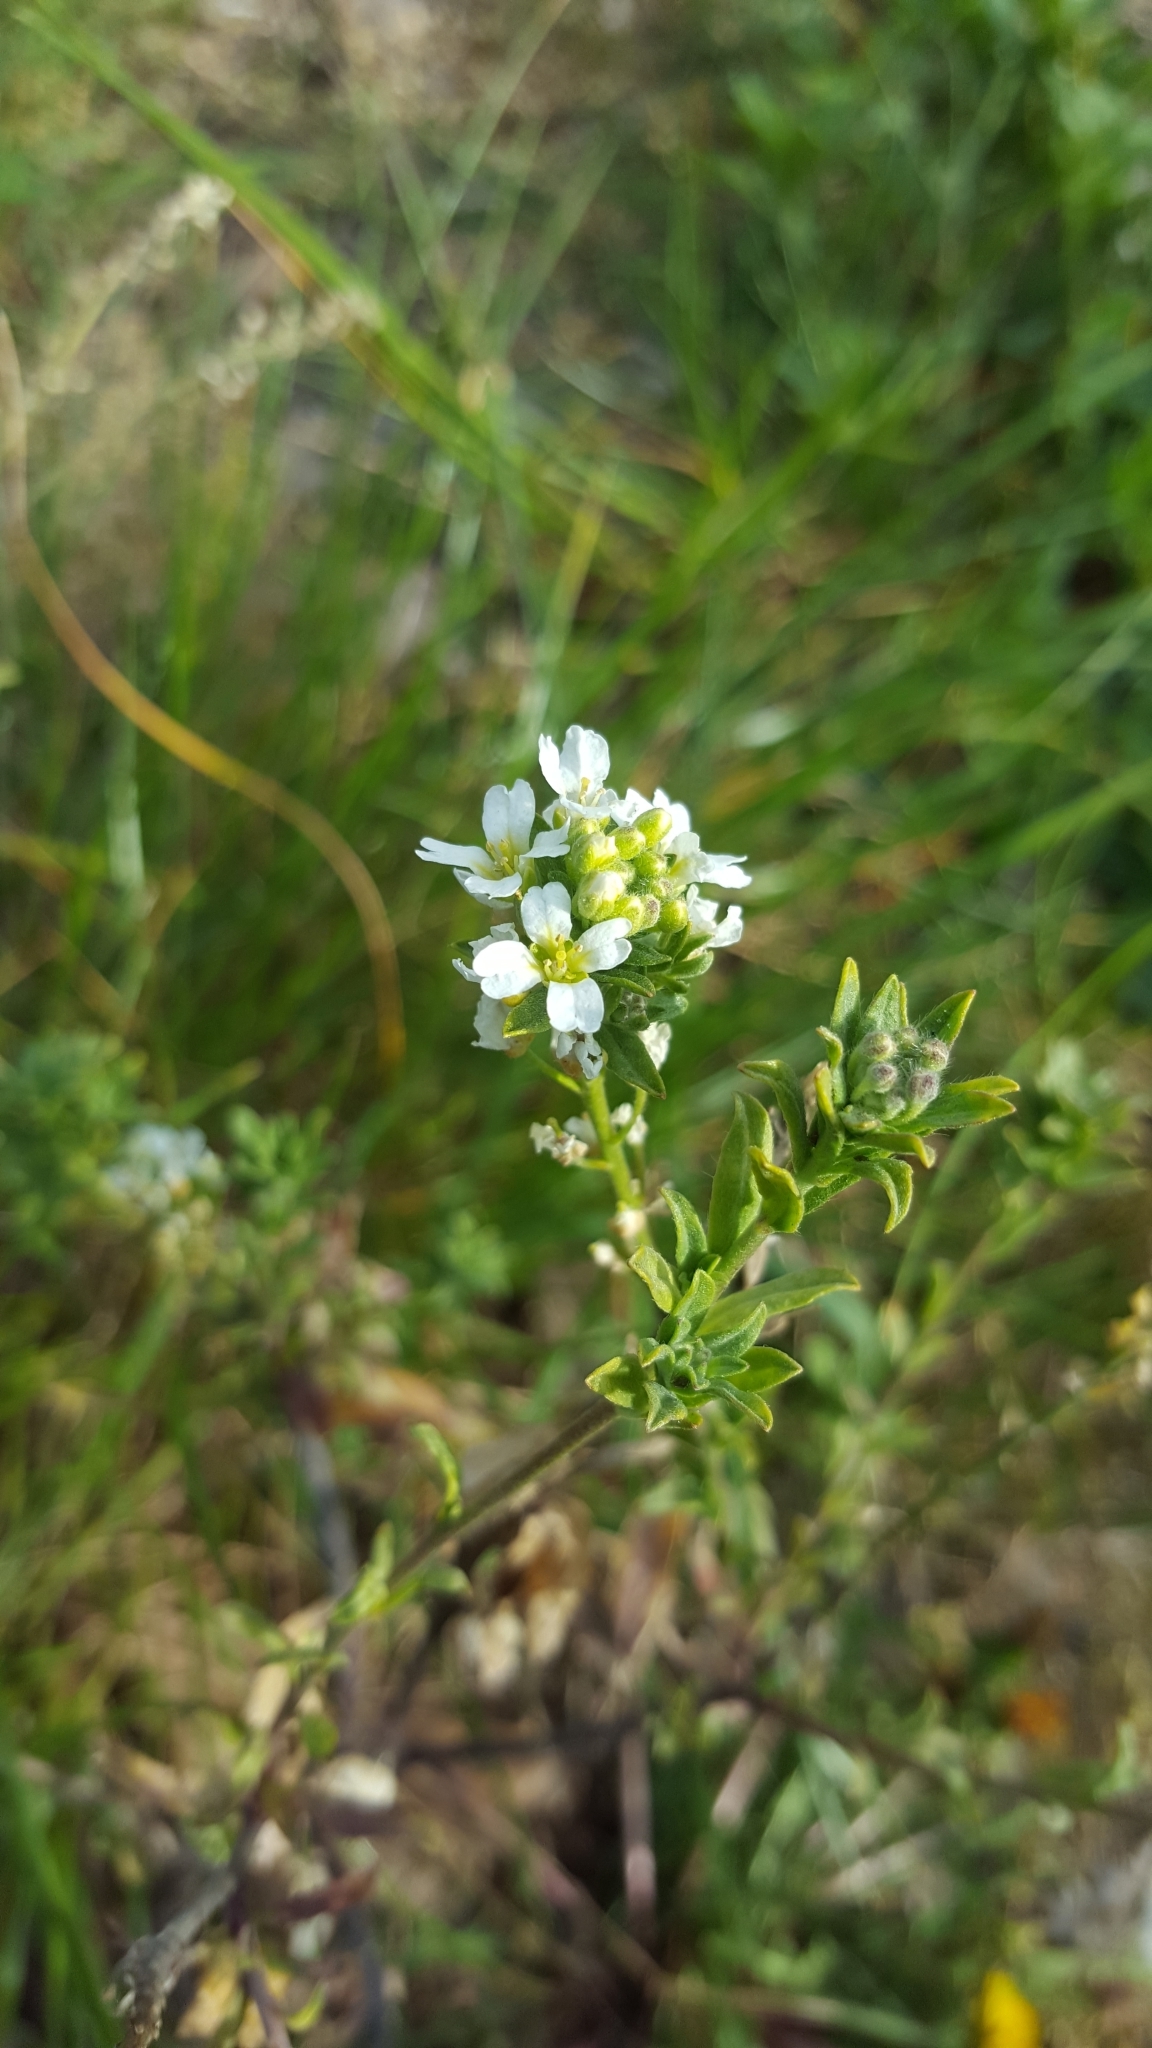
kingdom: Plantae
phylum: Tracheophyta
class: Magnoliopsida
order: Brassicales
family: Brassicaceae
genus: Berteroa
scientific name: Berteroa incana
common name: Hoary alison
